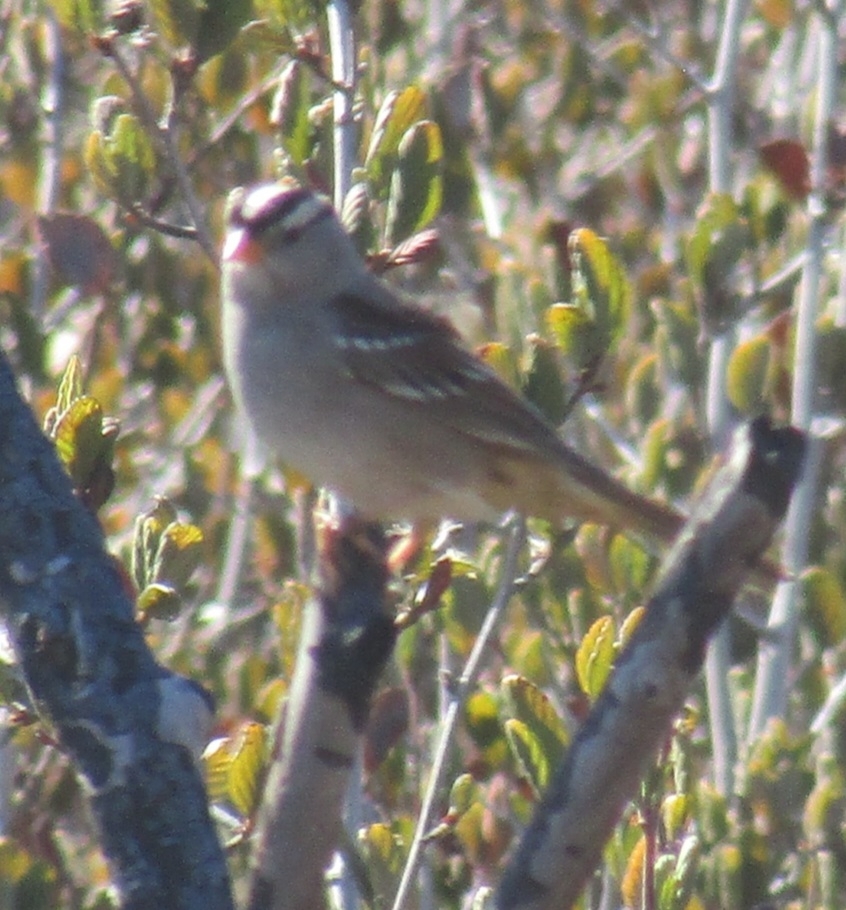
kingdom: Animalia
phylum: Chordata
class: Aves
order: Passeriformes
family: Passerellidae
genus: Zonotrichia
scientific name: Zonotrichia leucophrys
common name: White-crowned sparrow
